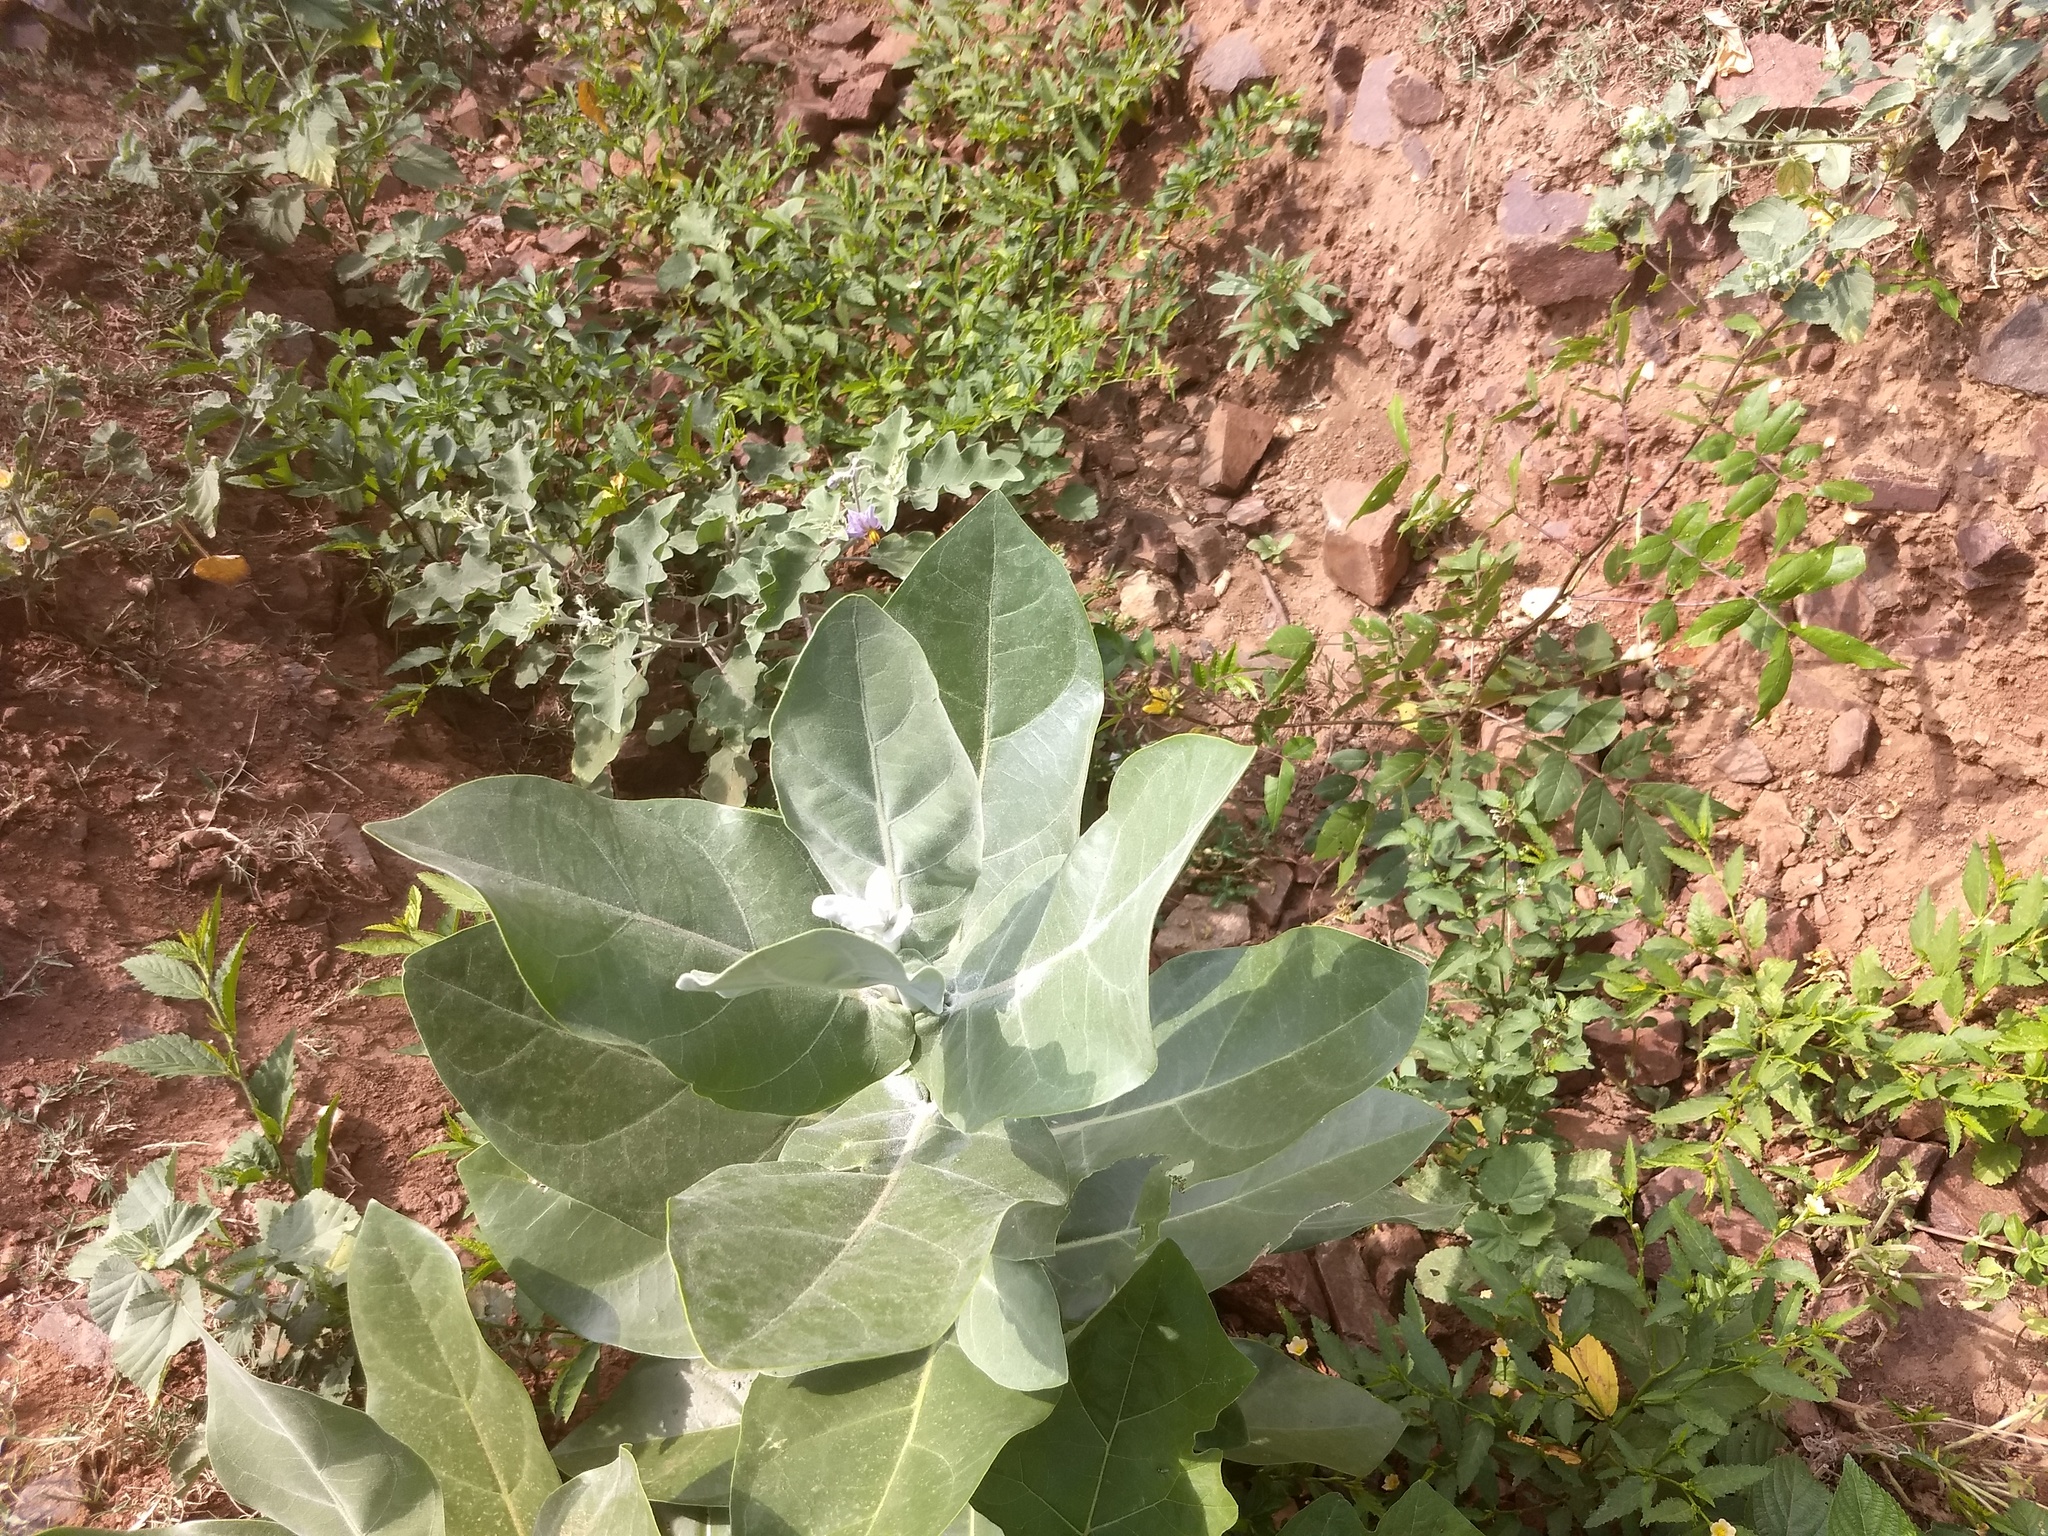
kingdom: Plantae
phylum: Tracheophyta
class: Magnoliopsida
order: Gentianales
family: Apocynaceae
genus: Calotropis
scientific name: Calotropis gigantea
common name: Crown flower
